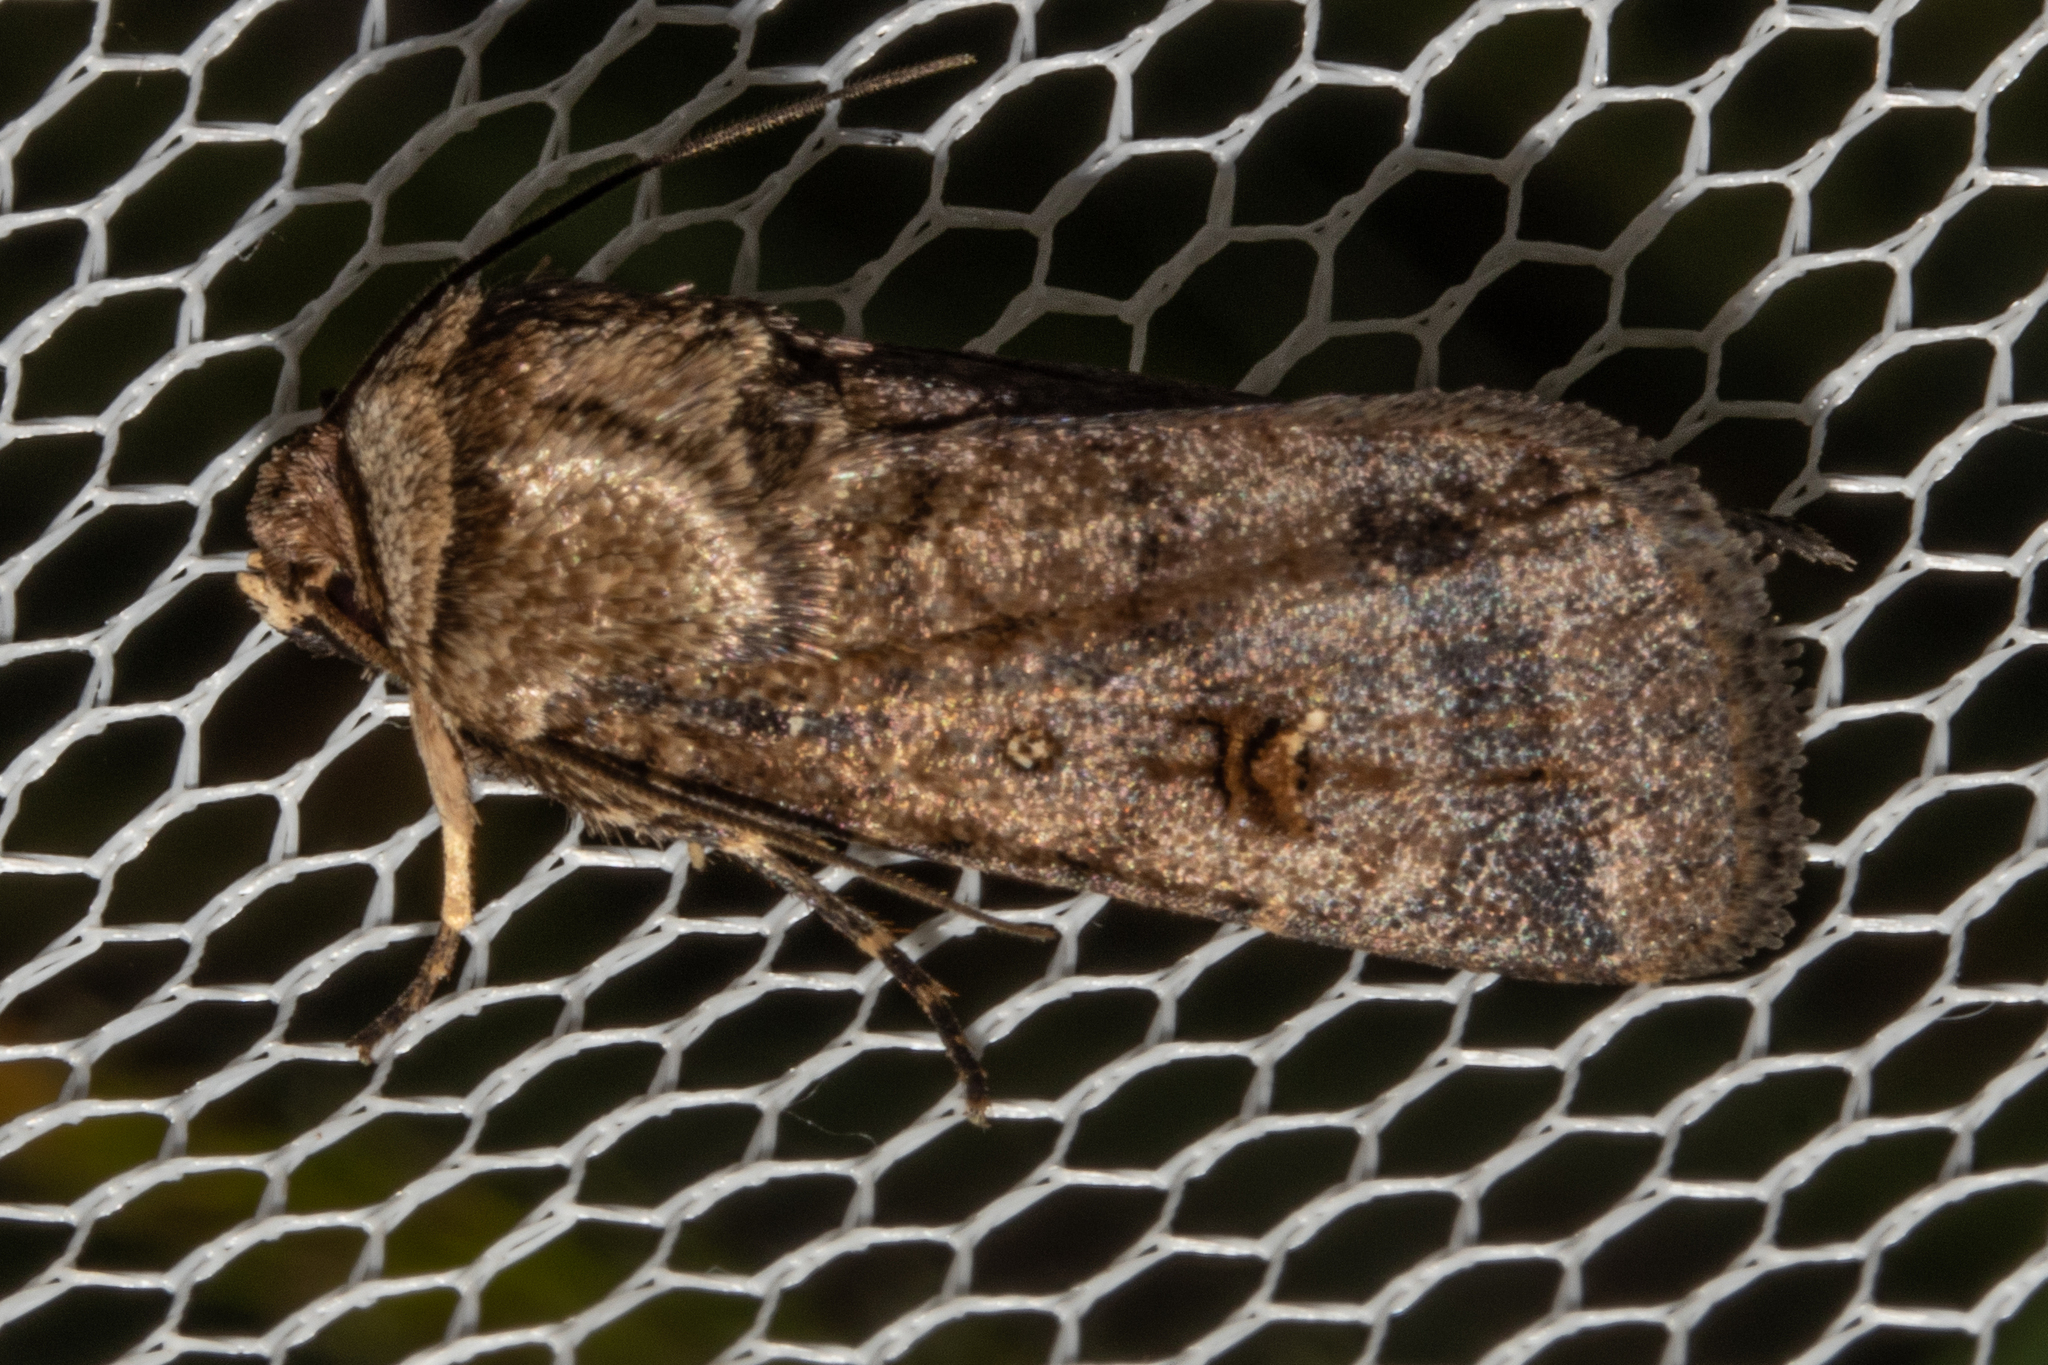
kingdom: Animalia
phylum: Arthropoda
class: Insecta
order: Lepidoptera
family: Noctuidae
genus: Proteuxoa
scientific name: Proteuxoa tetronycha
